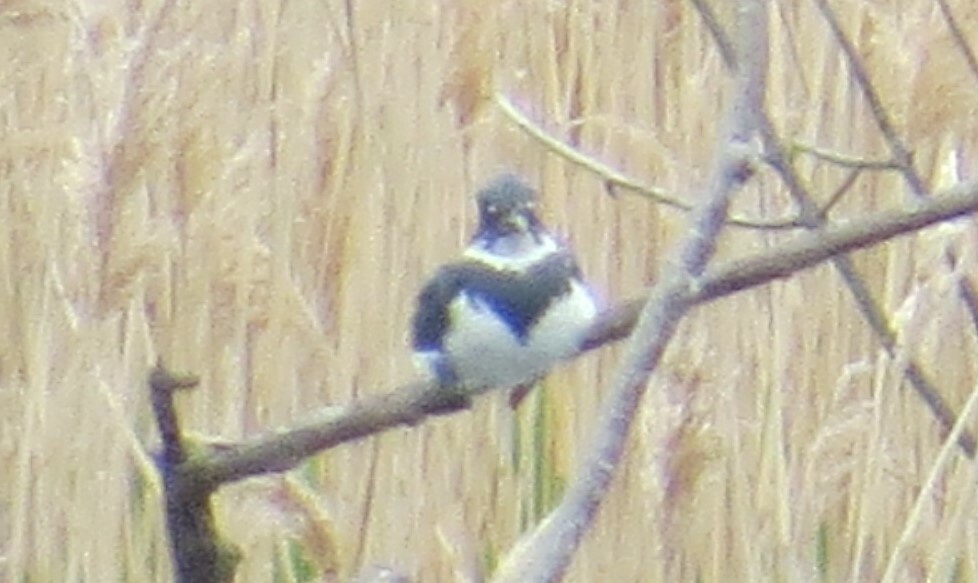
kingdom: Animalia
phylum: Chordata
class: Aves
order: Coraciiformes
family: Alcedinidae
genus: Megaceryle
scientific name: Megaceryle alcyon
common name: Belted kingfisher
